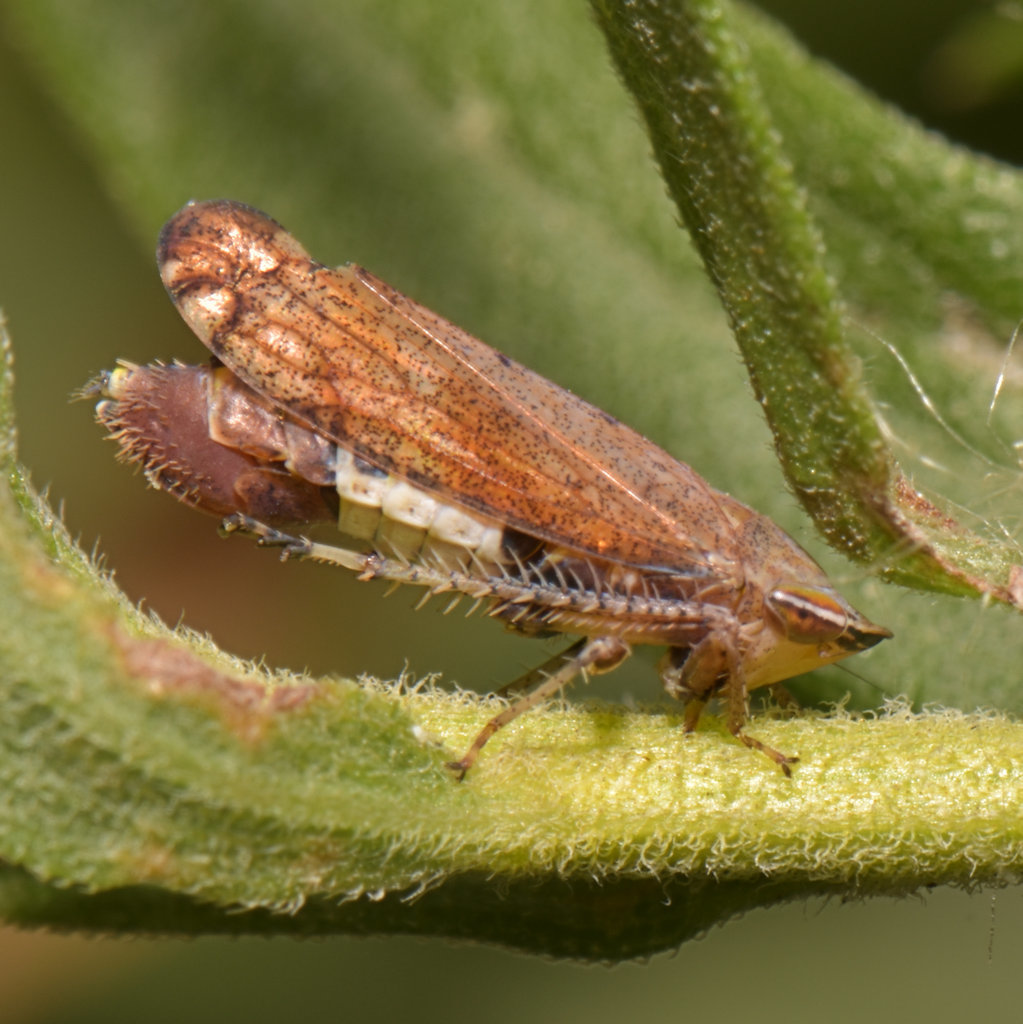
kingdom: Animalia
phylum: Arthropoda
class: Insecta
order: Hemiptera
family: Cicadellidae
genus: Fieberiella
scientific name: Fieberiella florii
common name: Flor’s leafhopper
